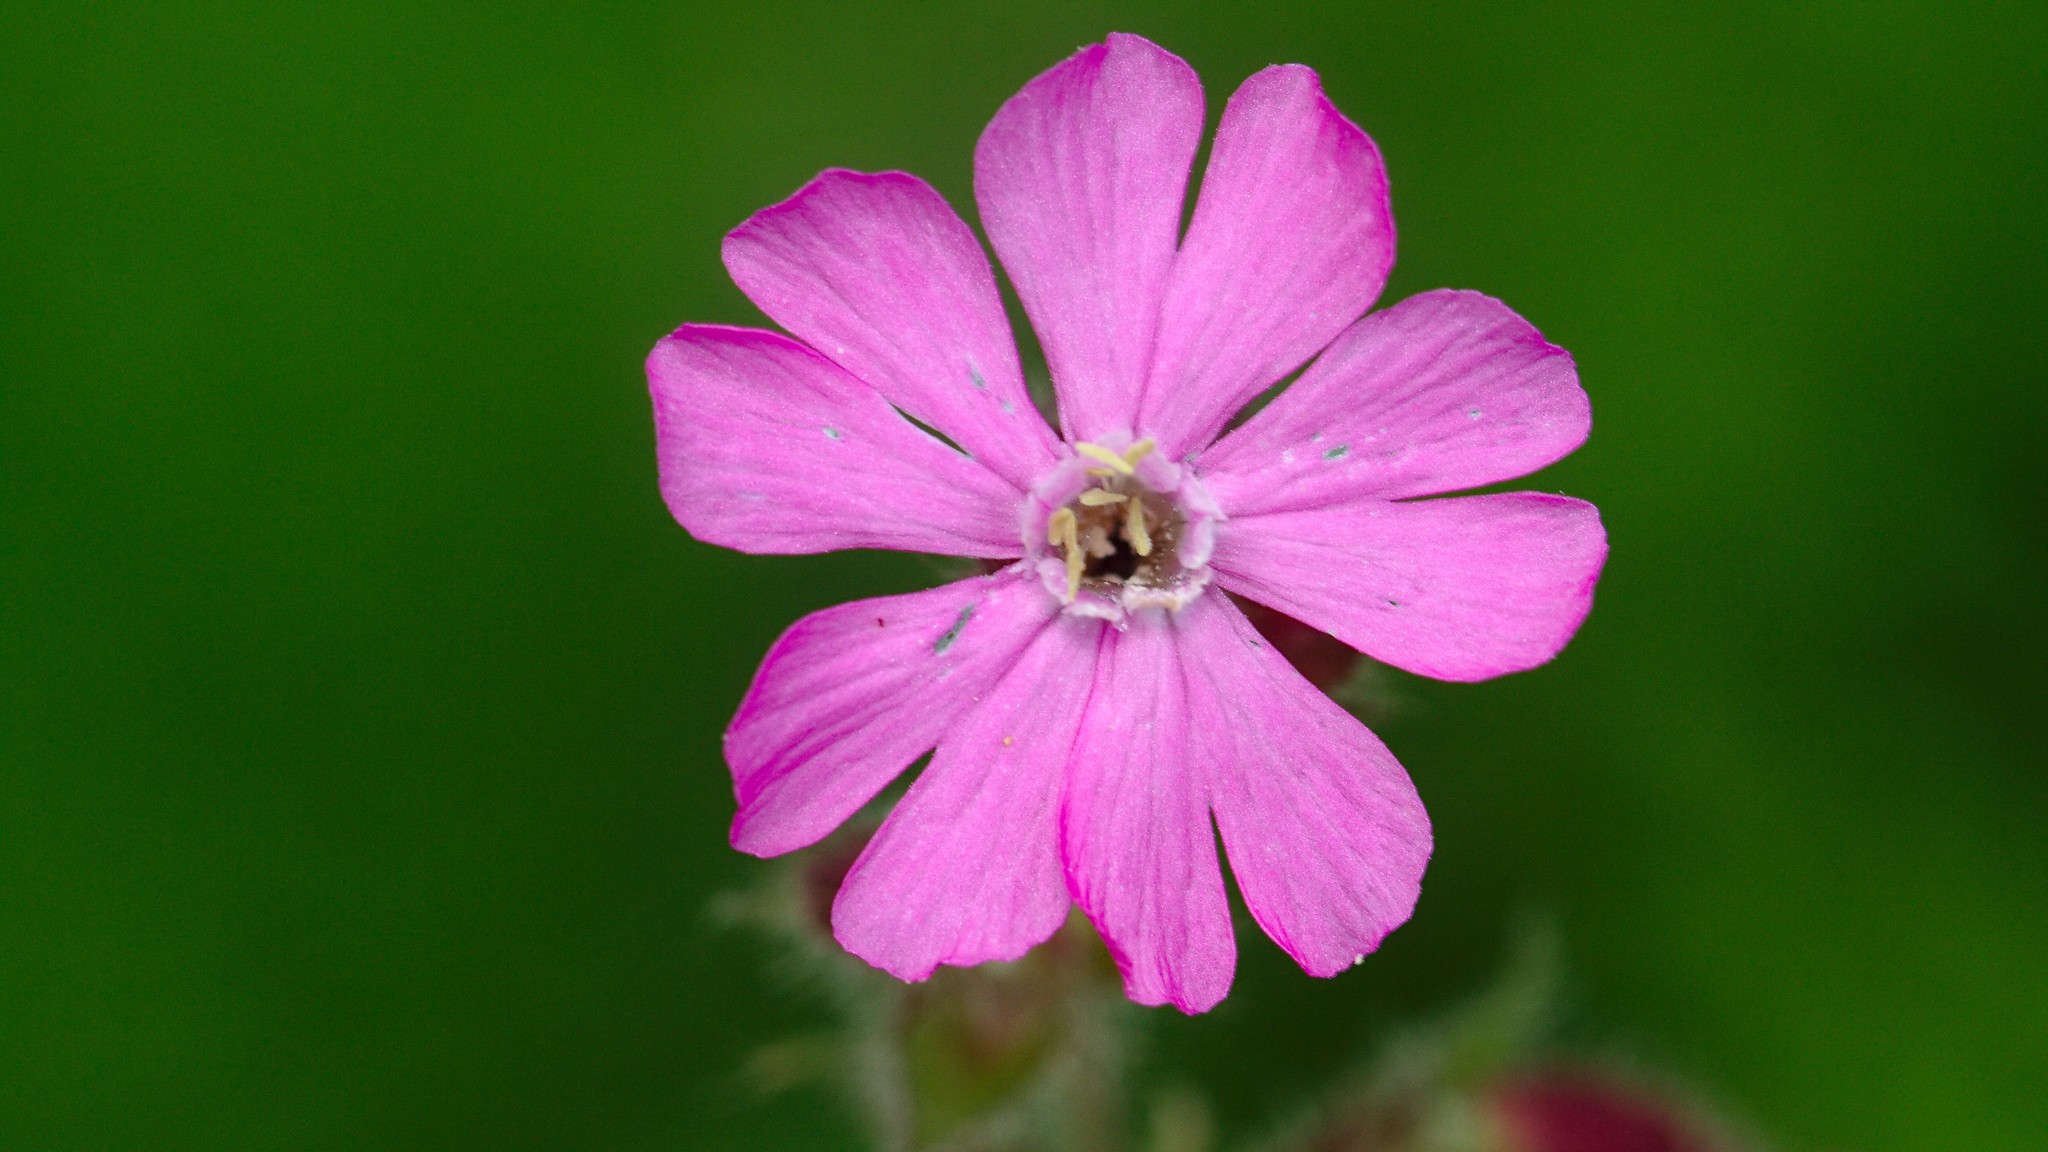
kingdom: Plantae
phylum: Tracheophyta
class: Magnoliopsida
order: Caryophyllales
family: Caryophyllaceae
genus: Silene
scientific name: Silene dioica
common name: Red campion
